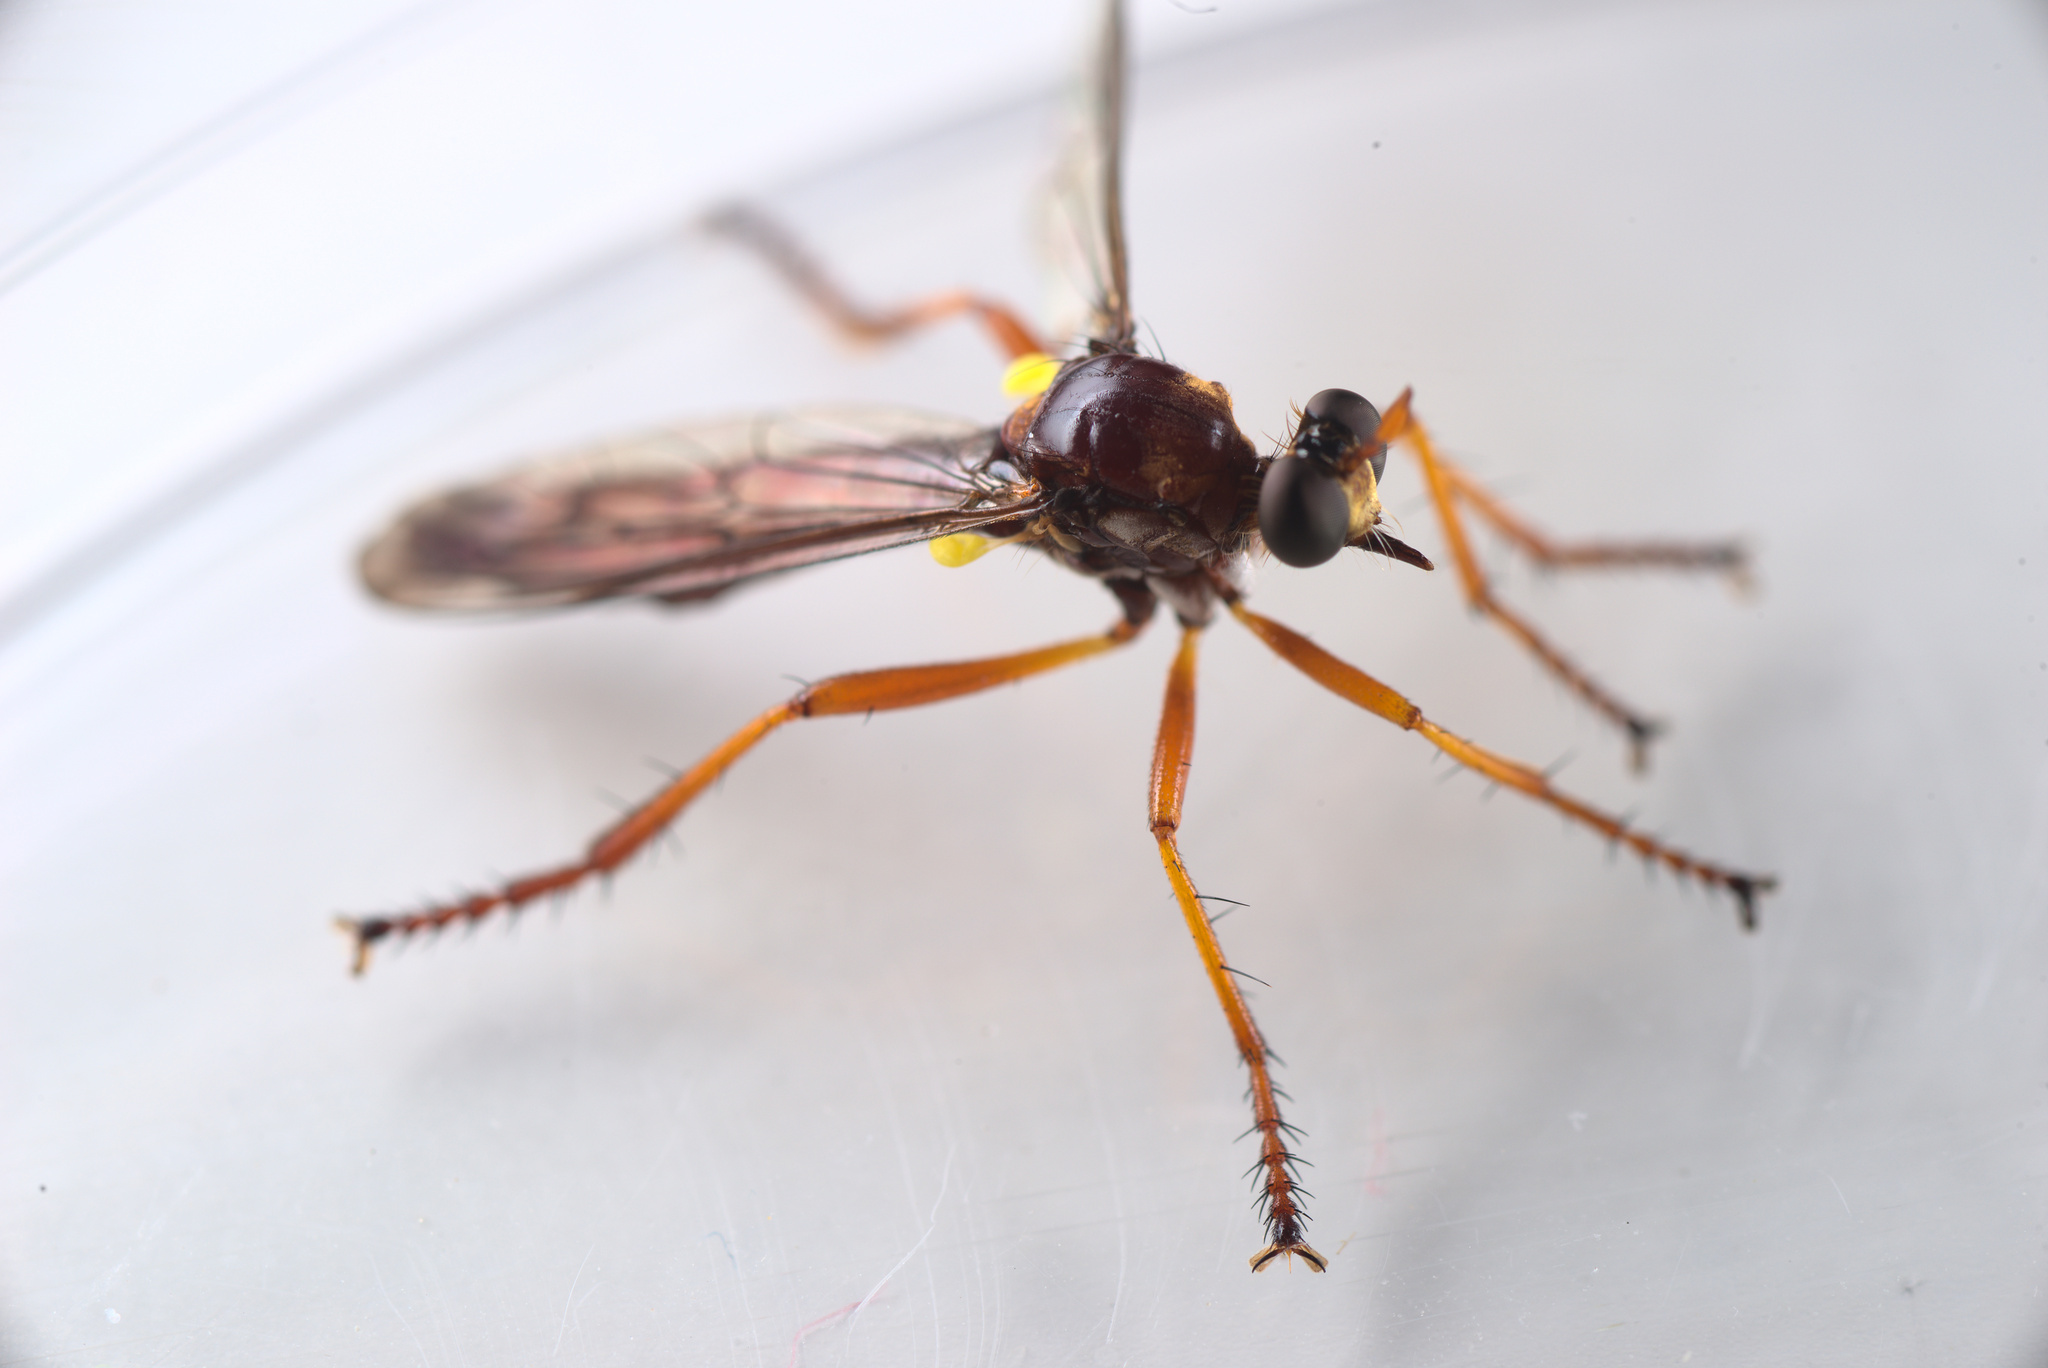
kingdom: Animalia
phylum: Arthropoda
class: Insecta
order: Diptera
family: Asilidae
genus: Saropogon
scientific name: Saropogon antipodus
